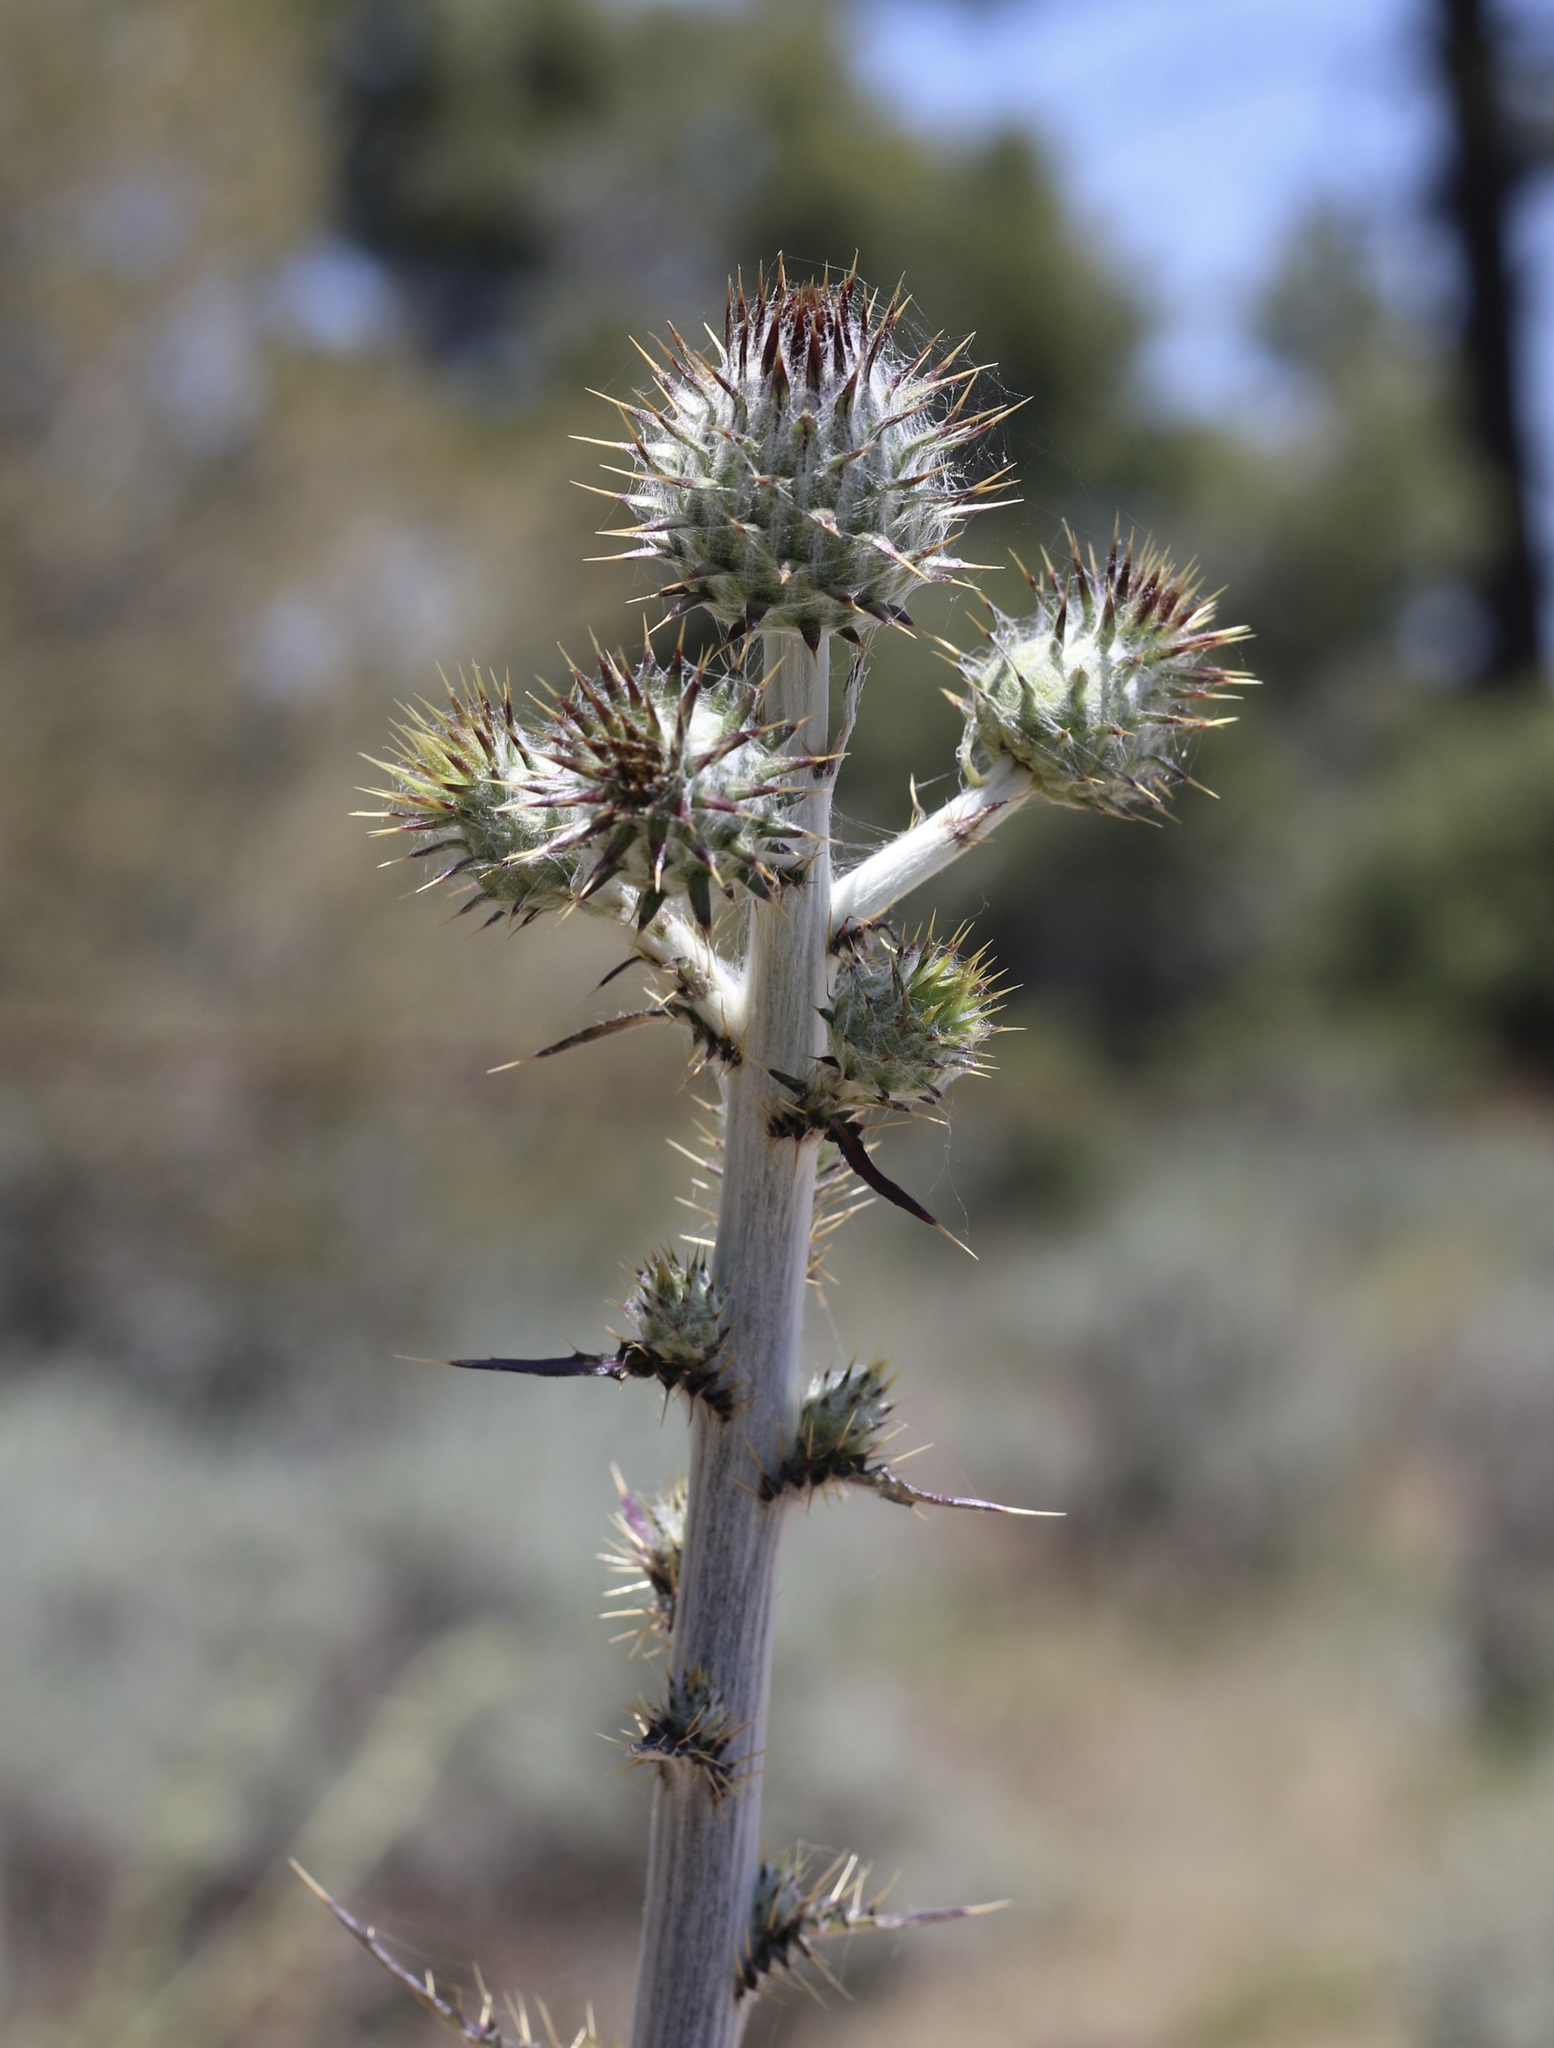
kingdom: Plantae
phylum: Tracheophyta
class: Magnoliopsida
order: Asterales
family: Asteraceae
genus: Cirsium
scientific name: Cirsium occidentale
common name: Western thistle
